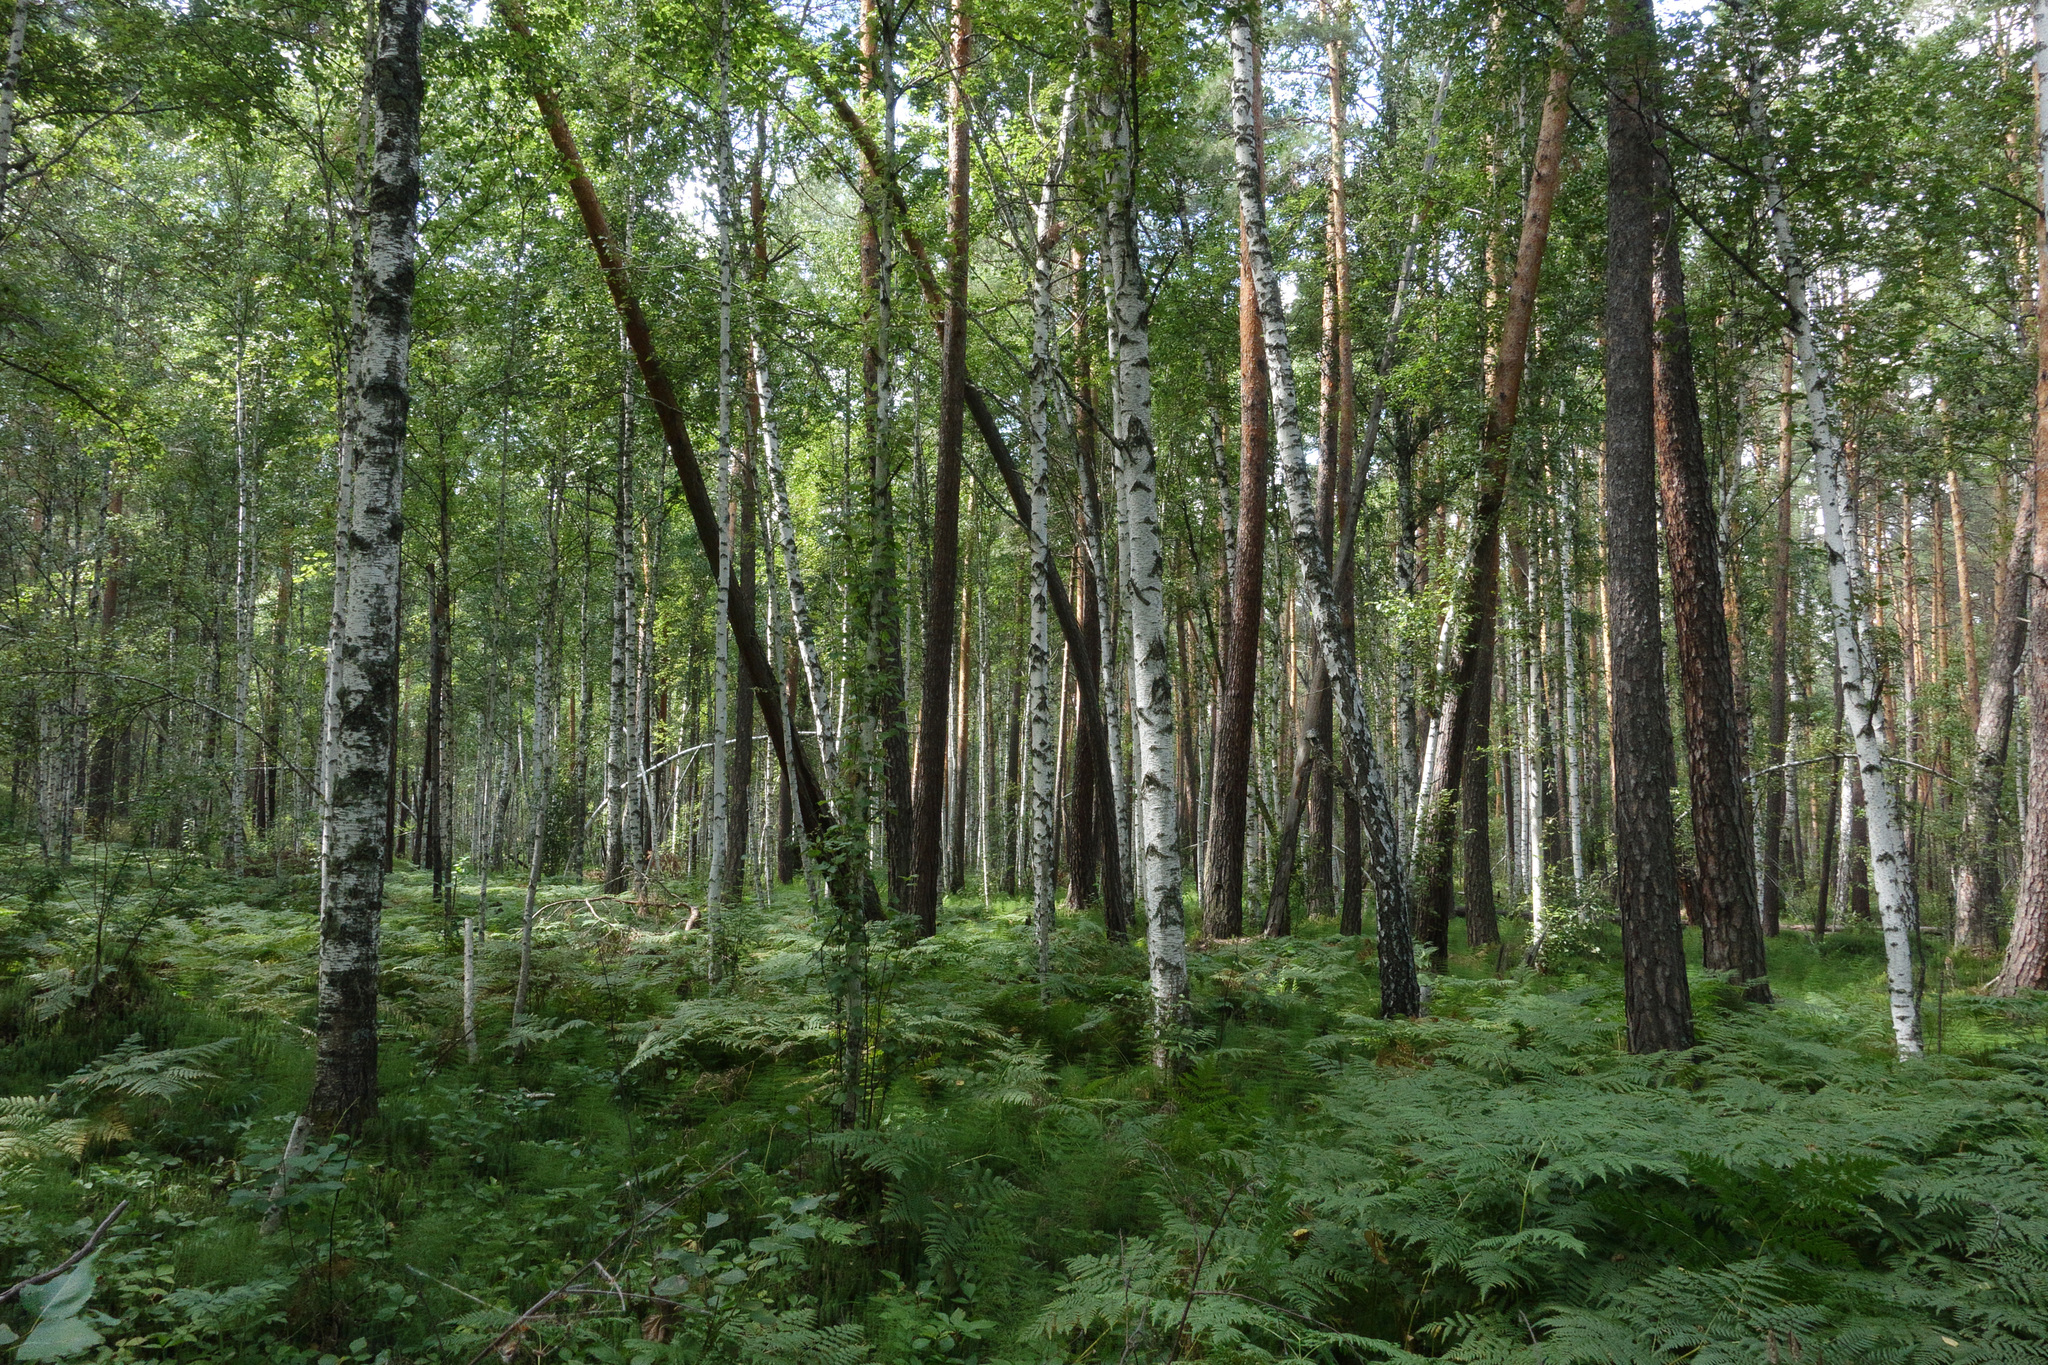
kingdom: Plantae
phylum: Tracheophyta
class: Magnoliopsida
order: Fagales
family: Betulaceae
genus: Betula
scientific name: Betula pubescens
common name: Downy birch
